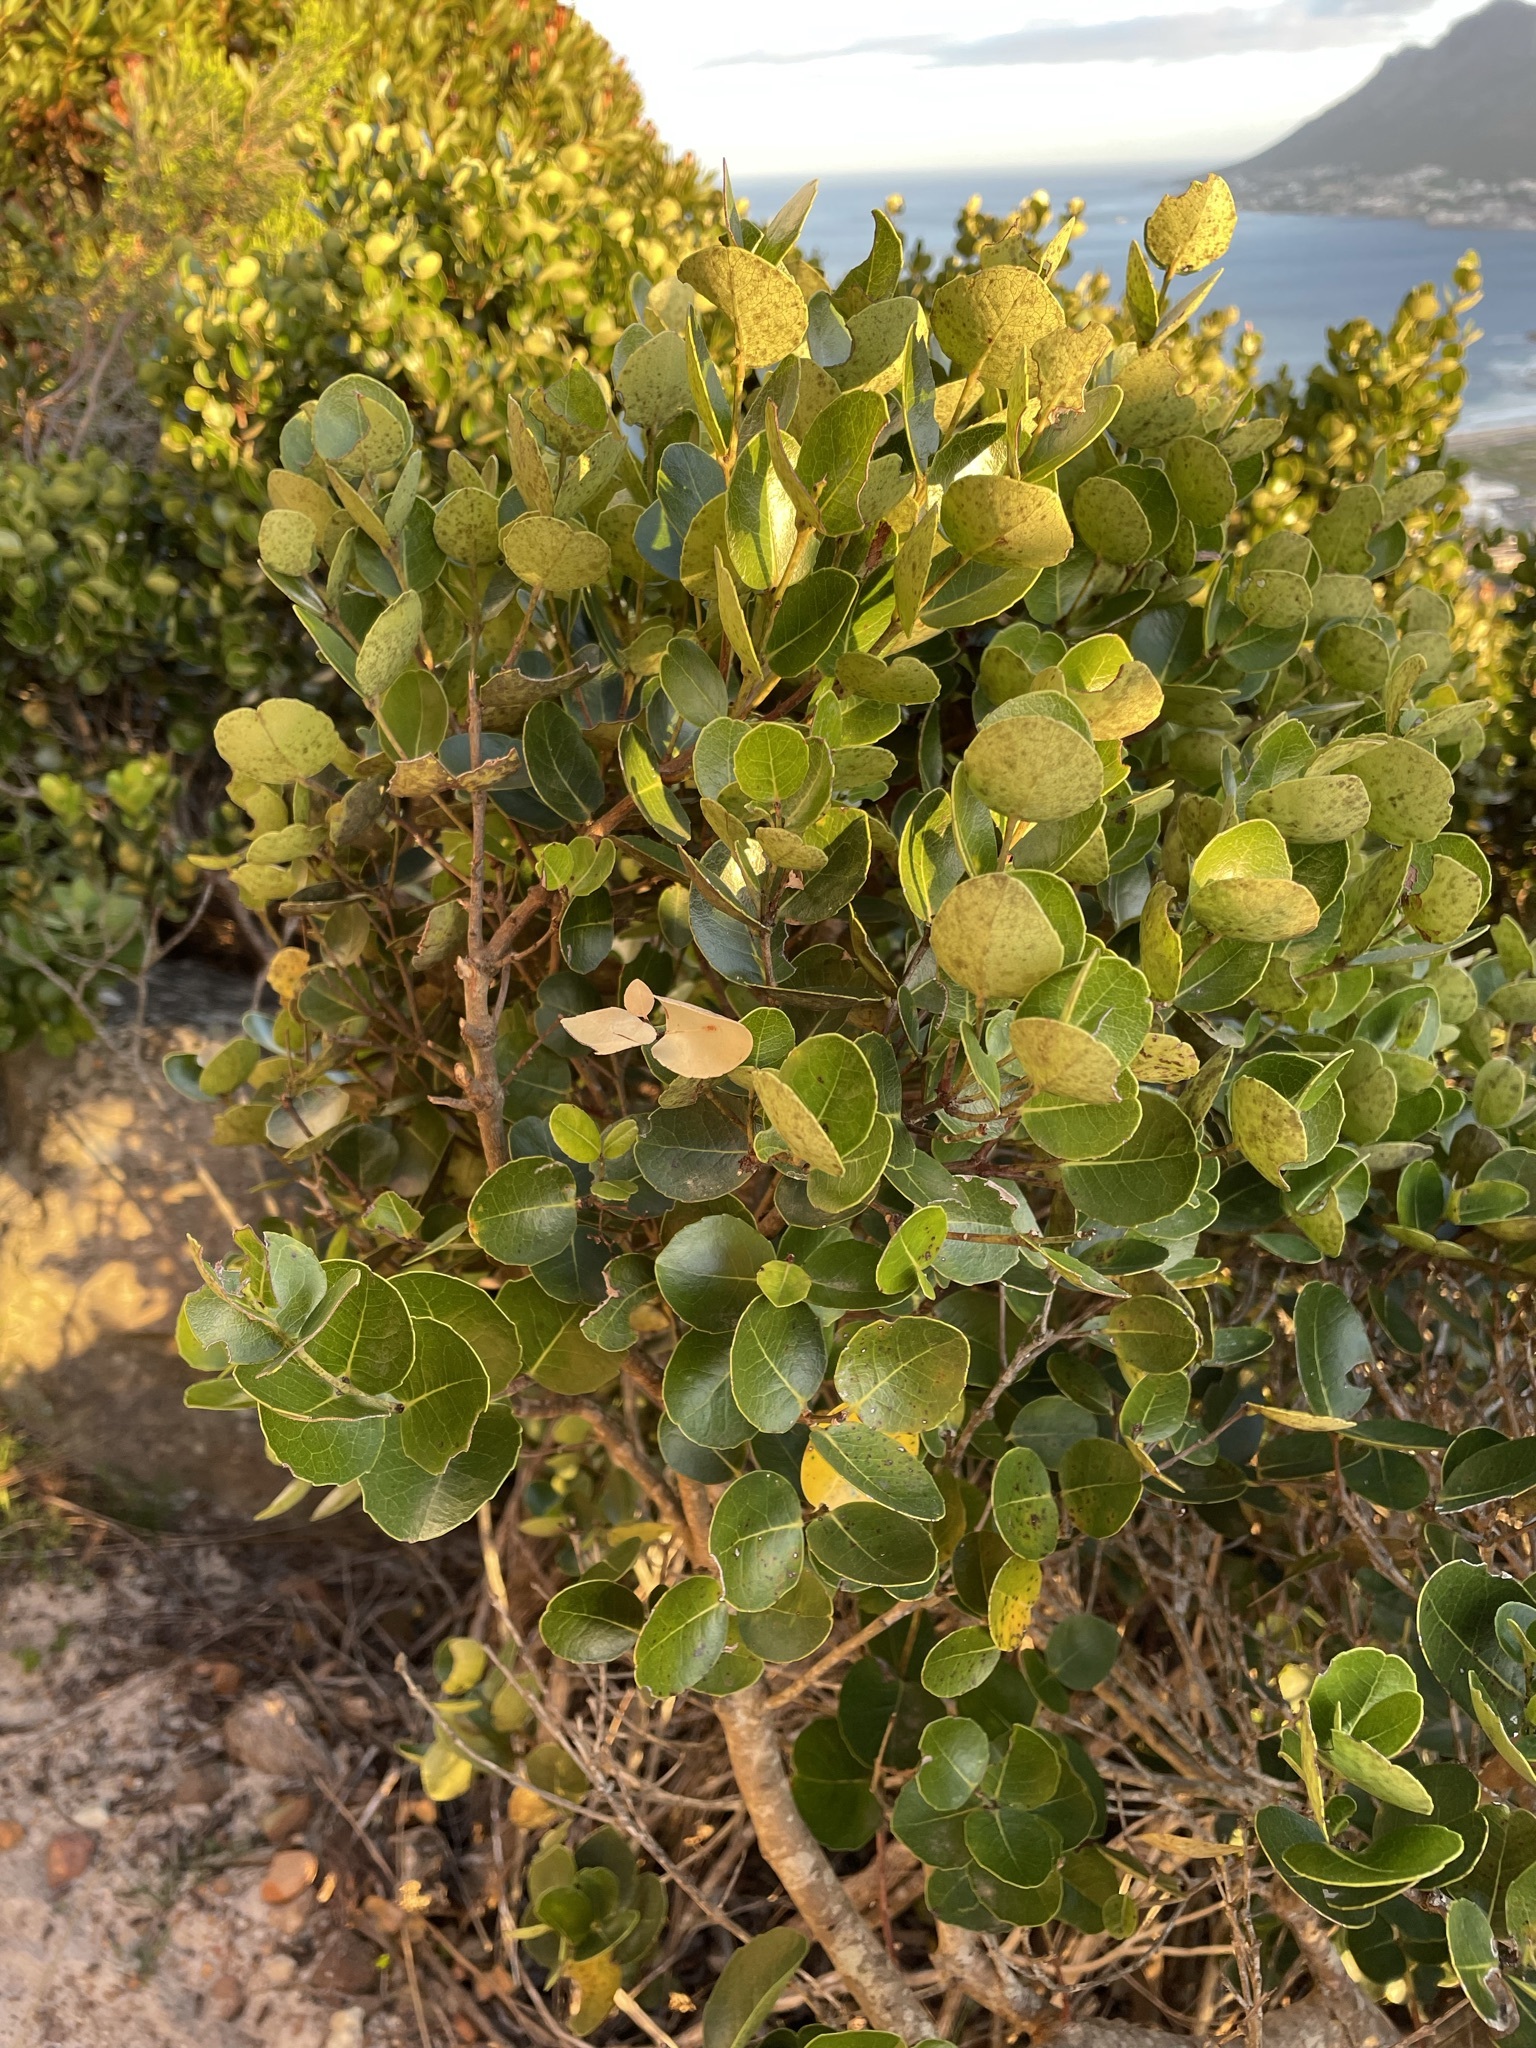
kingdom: Plantae
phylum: Tracheophyta
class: Magnoliopsida
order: Celastrales
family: Celastraceae
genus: Cassine
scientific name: Cassine peragua
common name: Cape saffron
